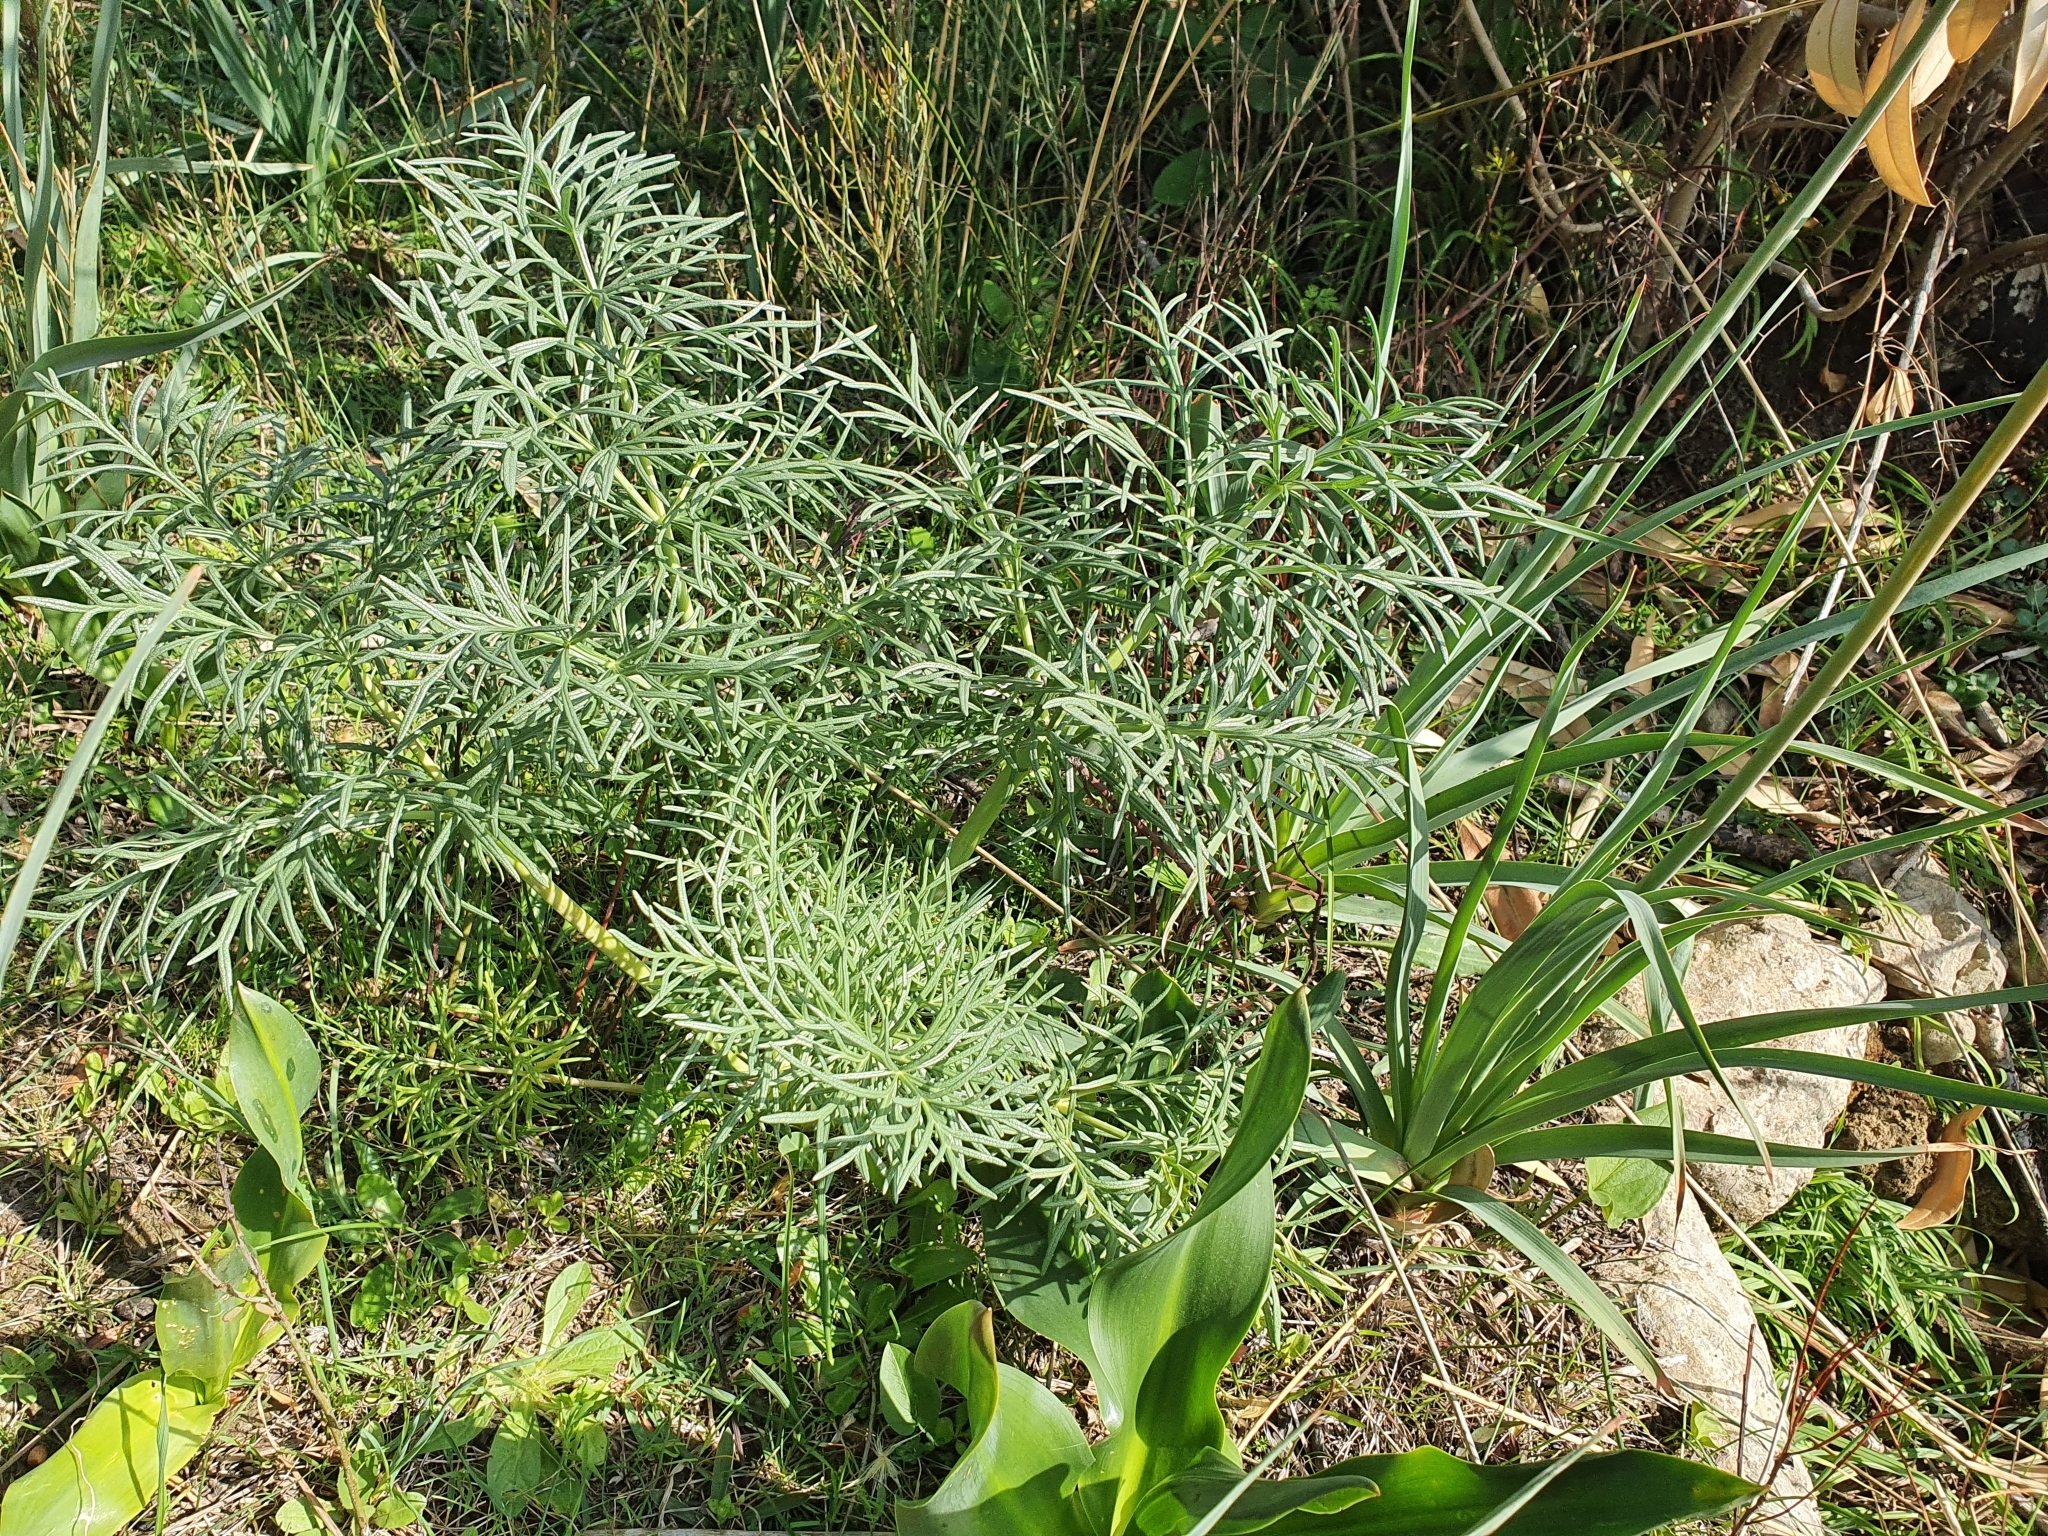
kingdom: Plantae
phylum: Tracheophyta
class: Magnoliopsida
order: Apiales
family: Apiaceae
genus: Thapsia
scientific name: Thapsia garganica
